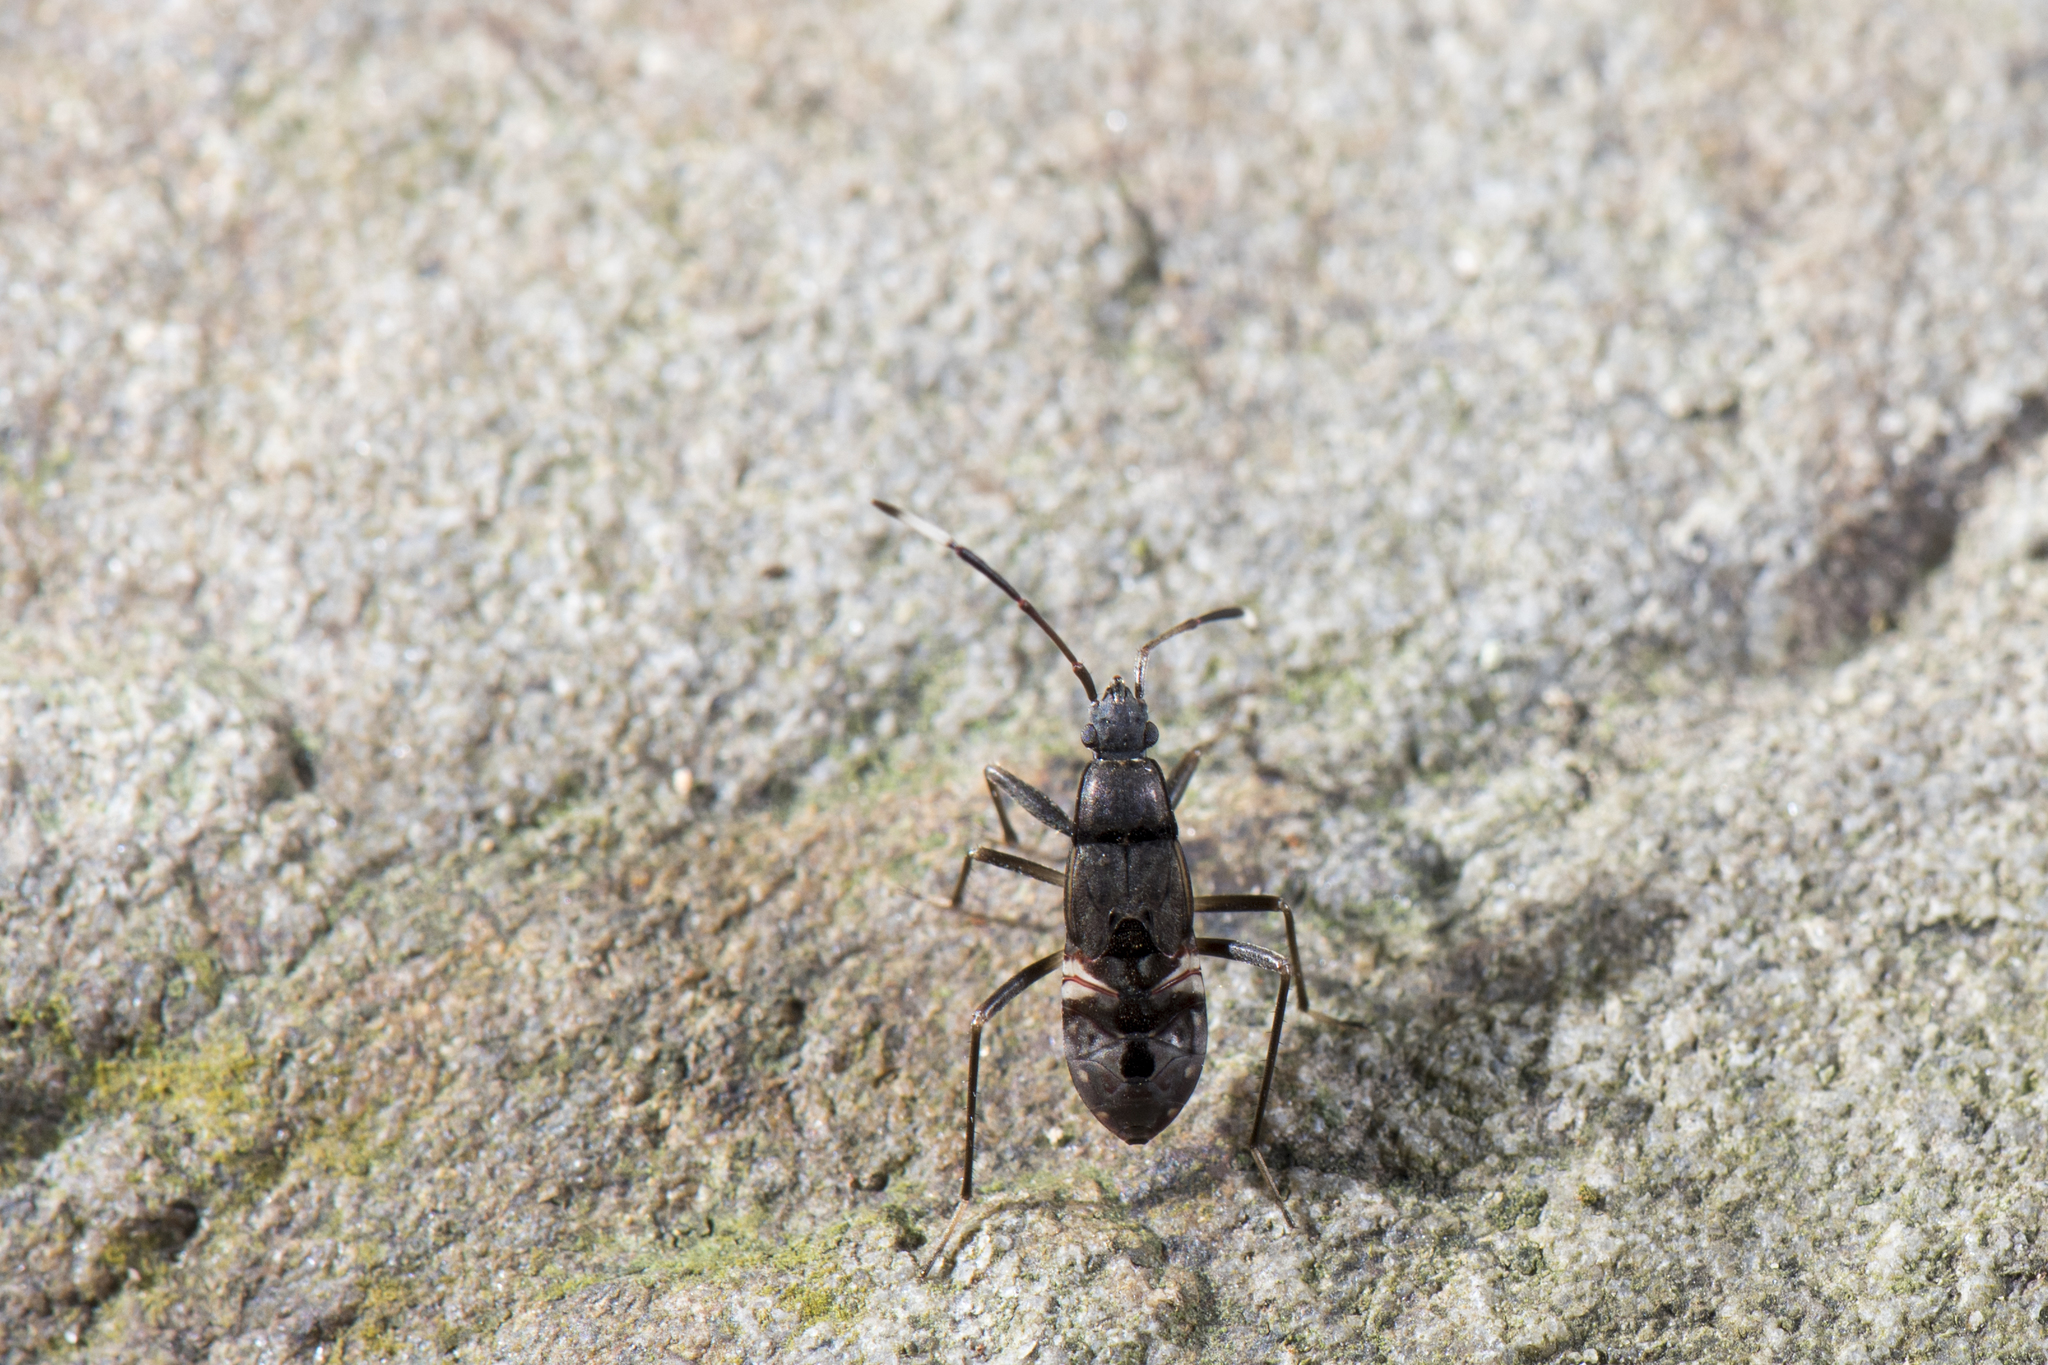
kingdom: Animalia
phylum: Arthropoda
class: Insecta
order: Hemiptera
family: Rhyparochromidae
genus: Metochus
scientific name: Metochus abbreviatus
